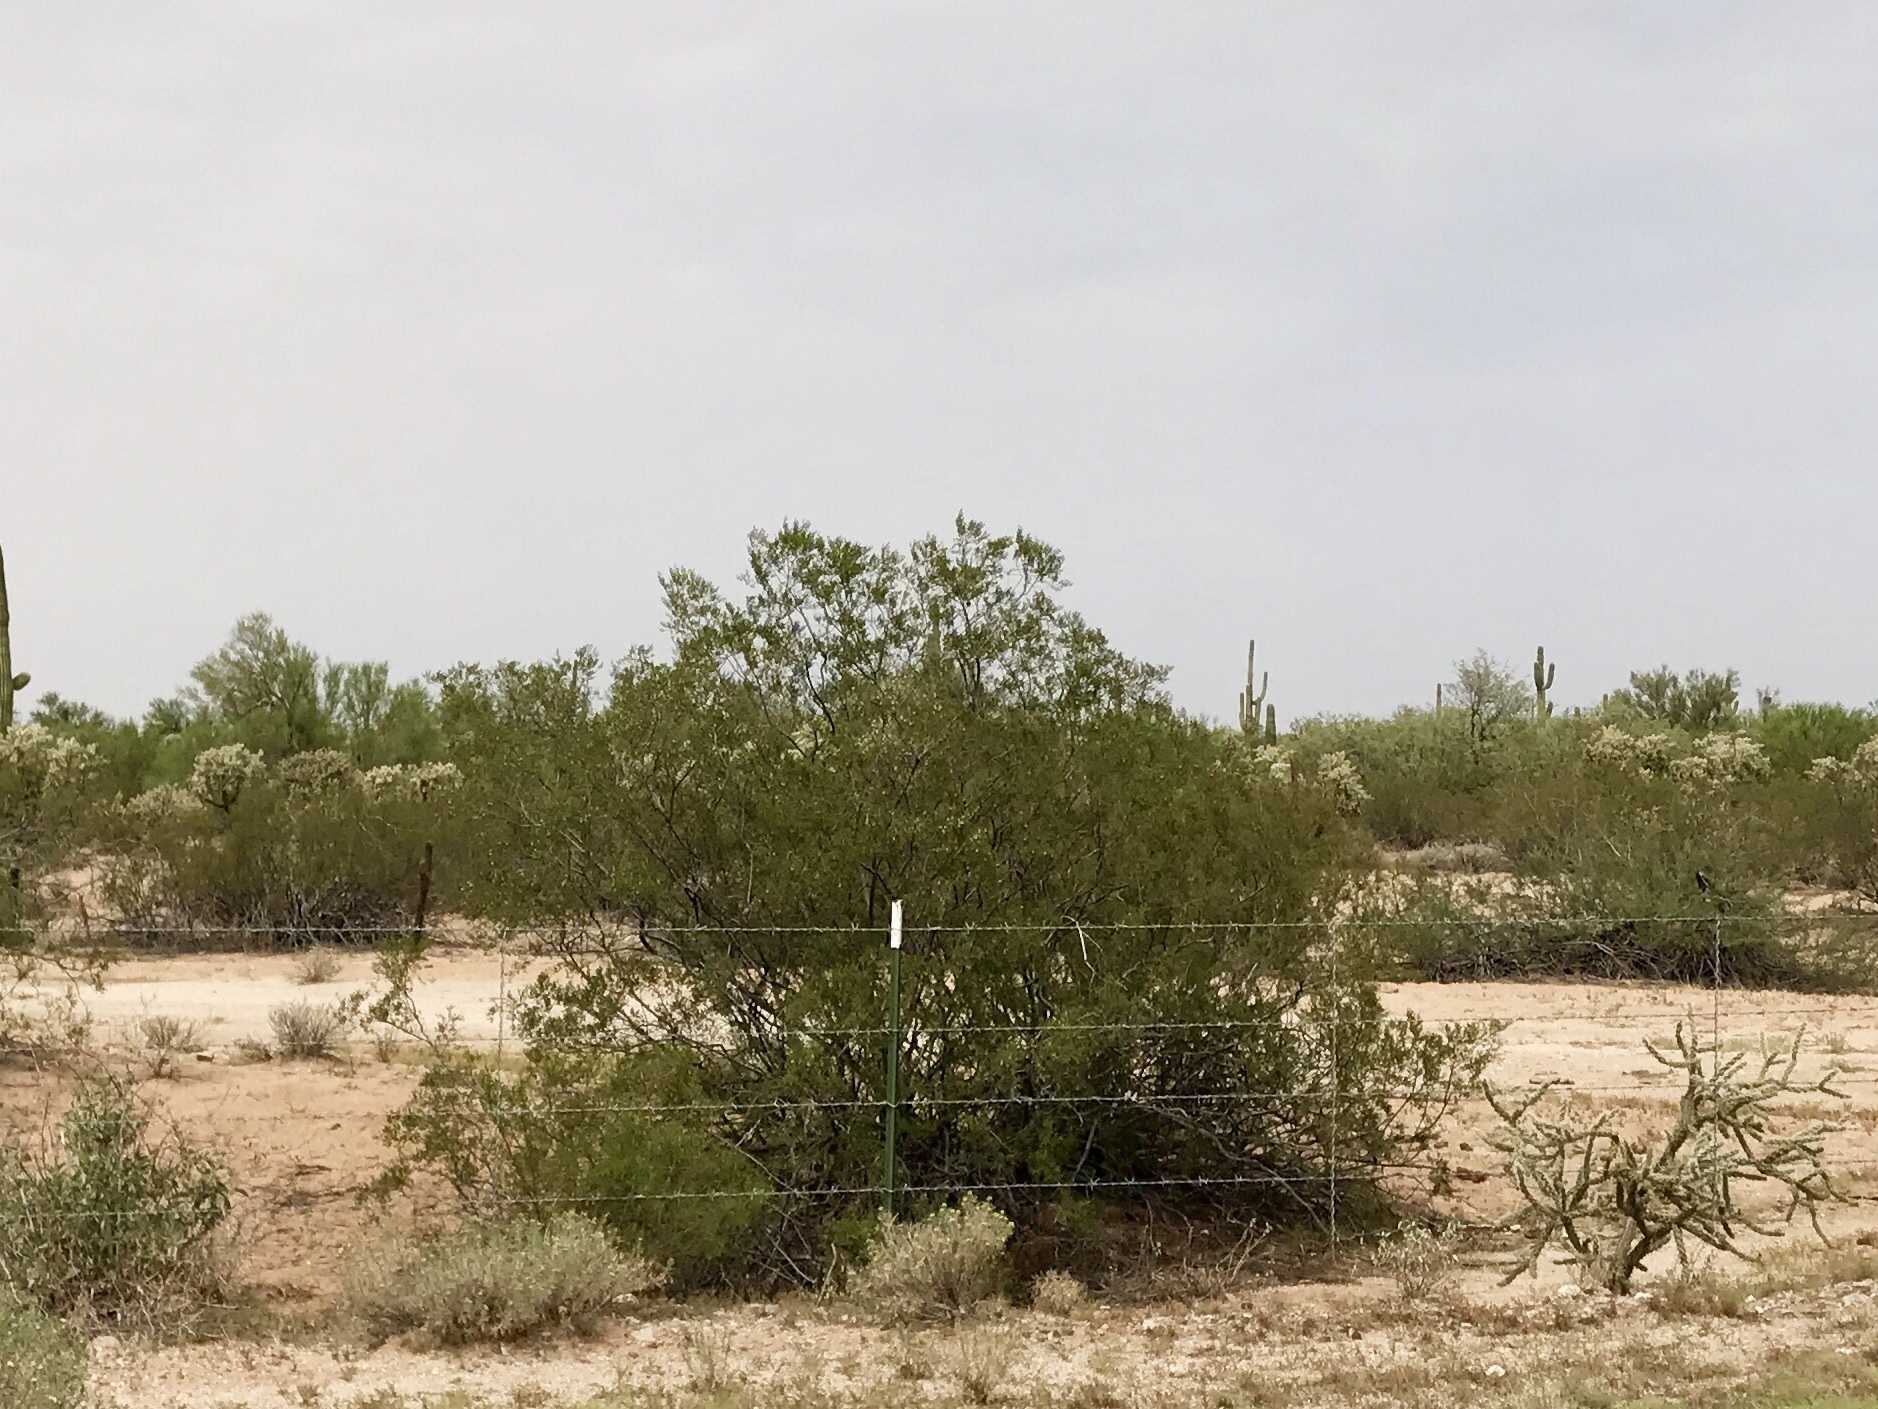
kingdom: Plantae
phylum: Tracheophyta
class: Magnoliopsida
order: Zygophyllales
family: Zygophyllaceae
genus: Larrea
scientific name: Larrea tridentata
